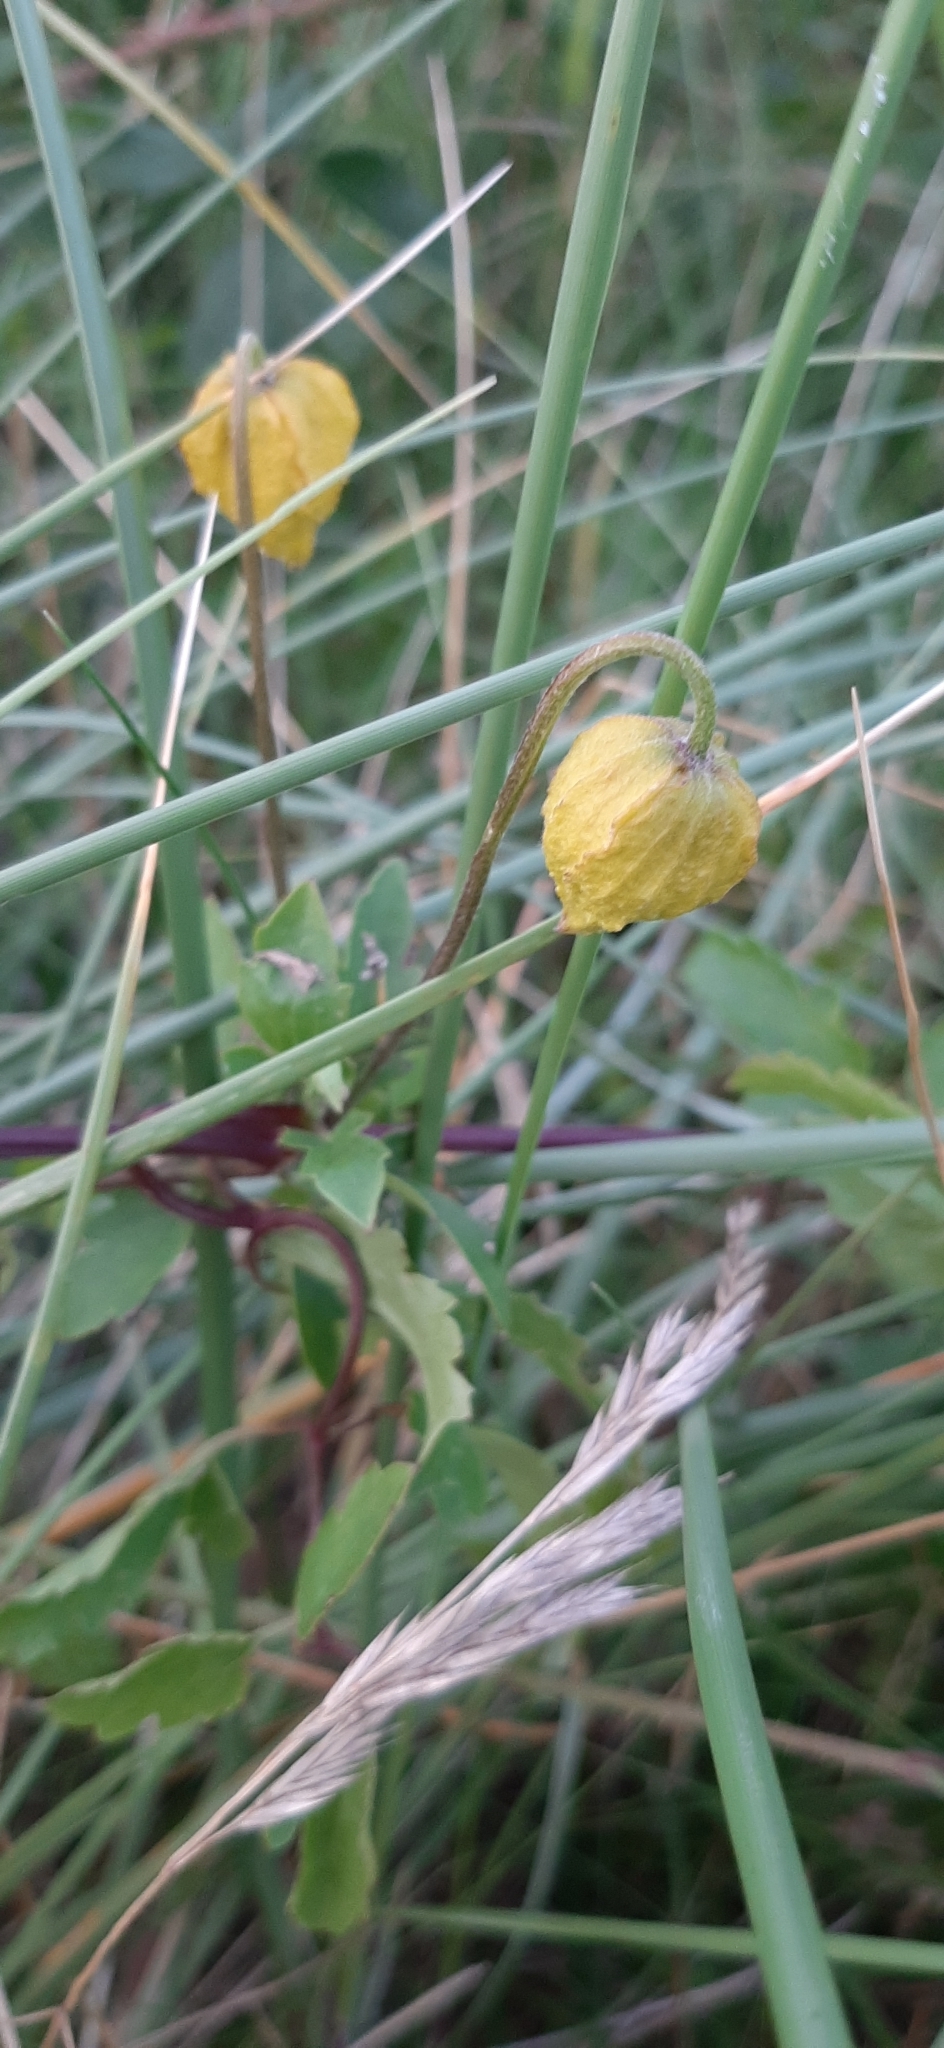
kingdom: Plantae
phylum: Tracheophyta
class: Magnoliopsida
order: Ranunculales
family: Ranunculaceae
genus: Clematis
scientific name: Clematis tangutica
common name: Orange-peel clematis
